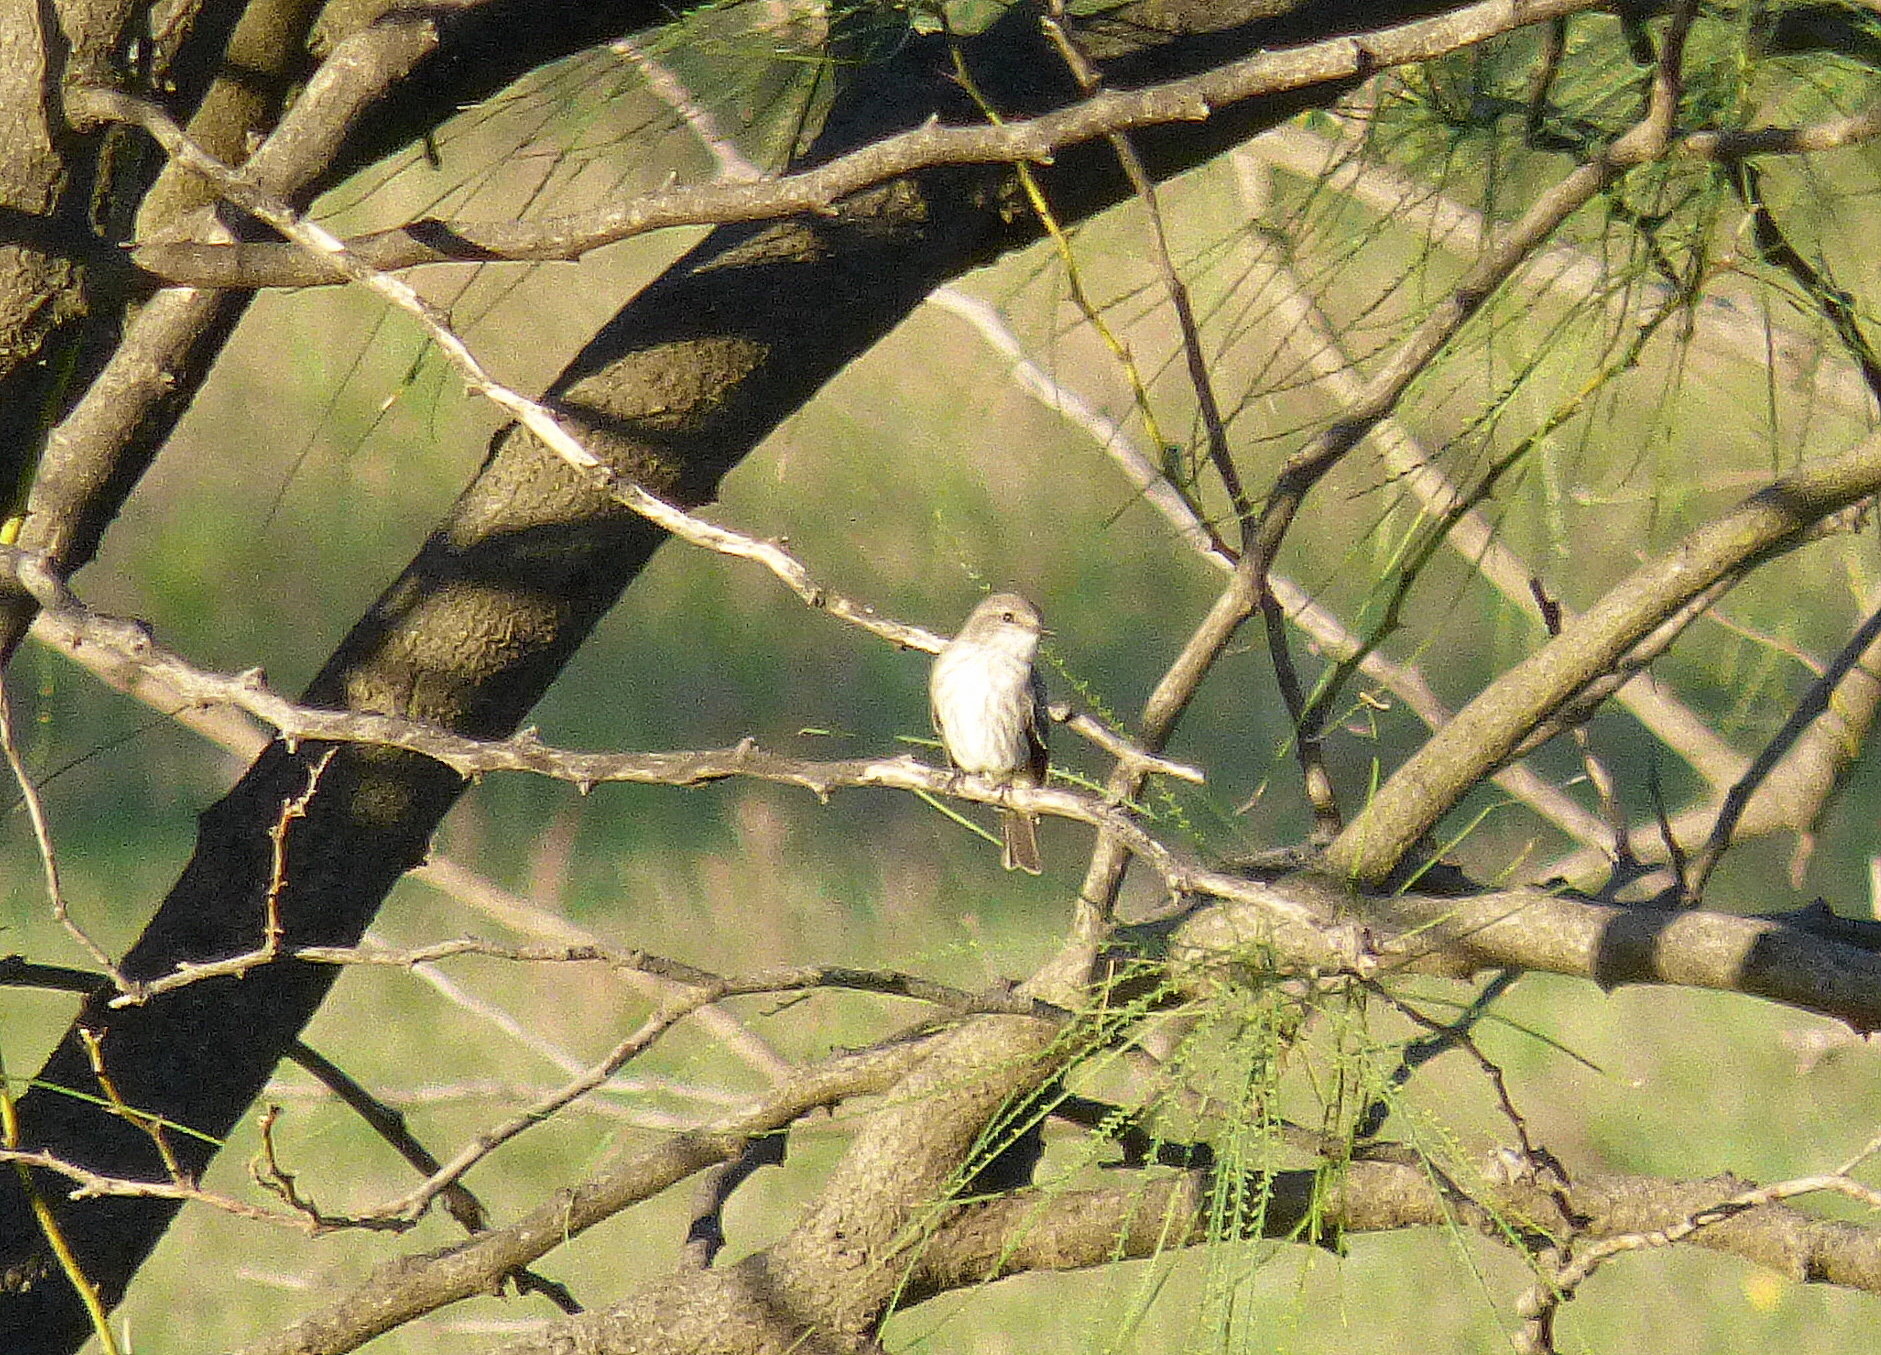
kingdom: Animalia
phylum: Chordata
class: Aves
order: Passeriformes
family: Tyrannidae
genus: Pyrocephalus
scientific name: Pyrocephalus rubinus
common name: Vermilion flycatcher
